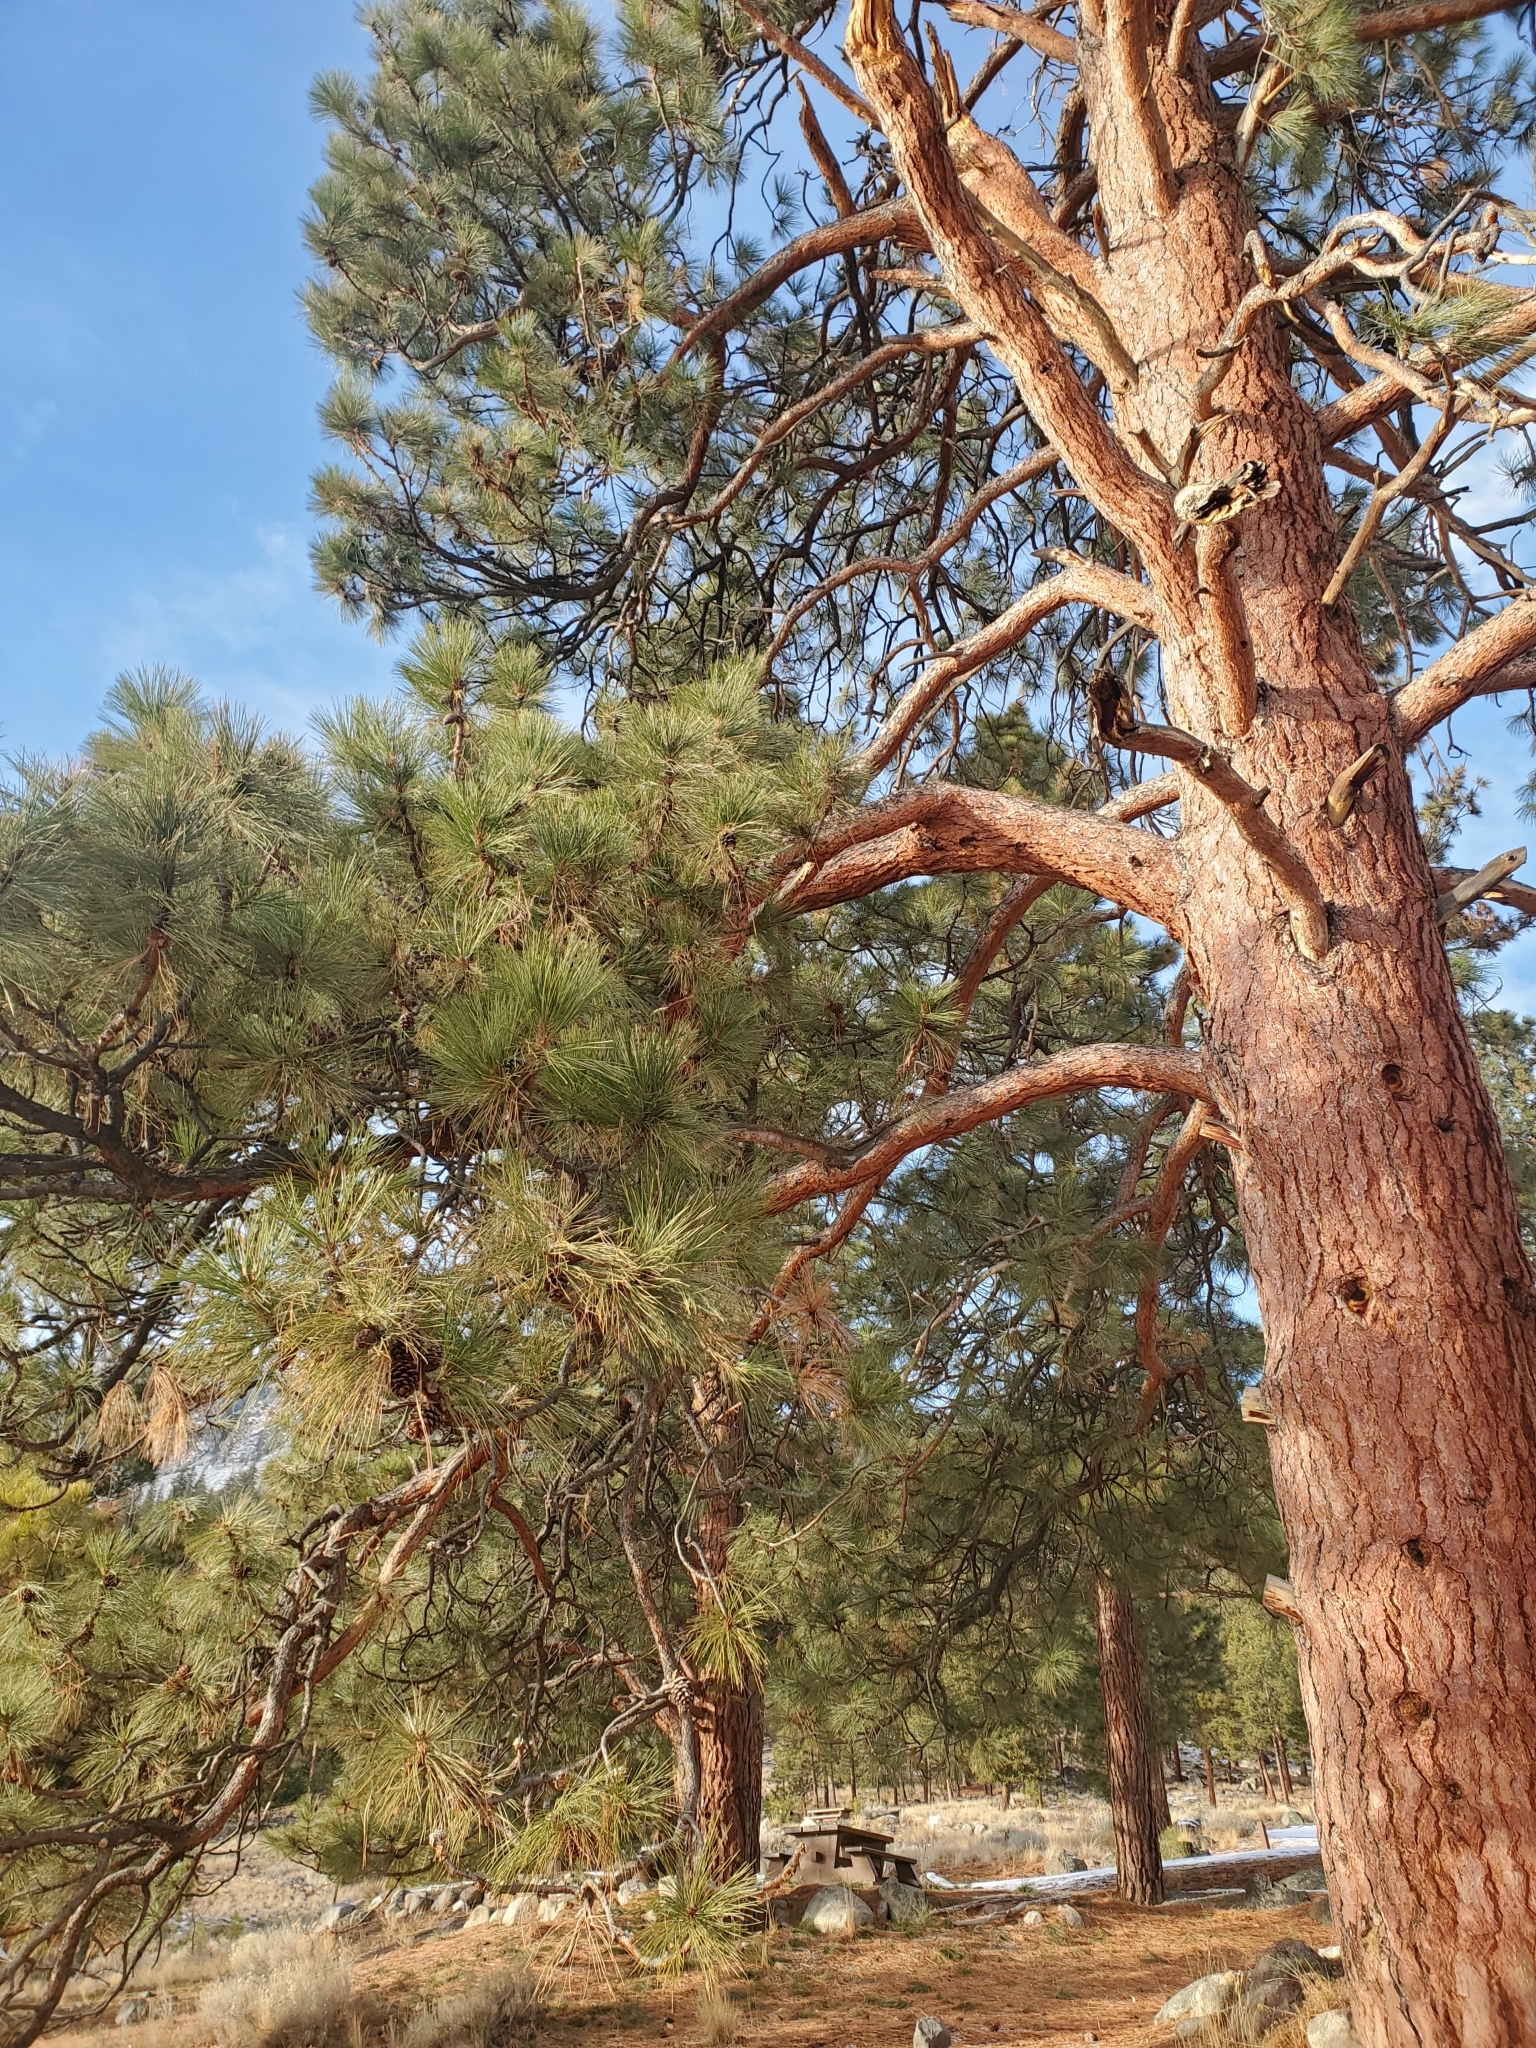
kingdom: Plantae
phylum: Tracheophyta
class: Pinopsida
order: Pinales
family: Pinaceae
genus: Pinus
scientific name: Pinus ponderosa
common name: Western yellow-pine
